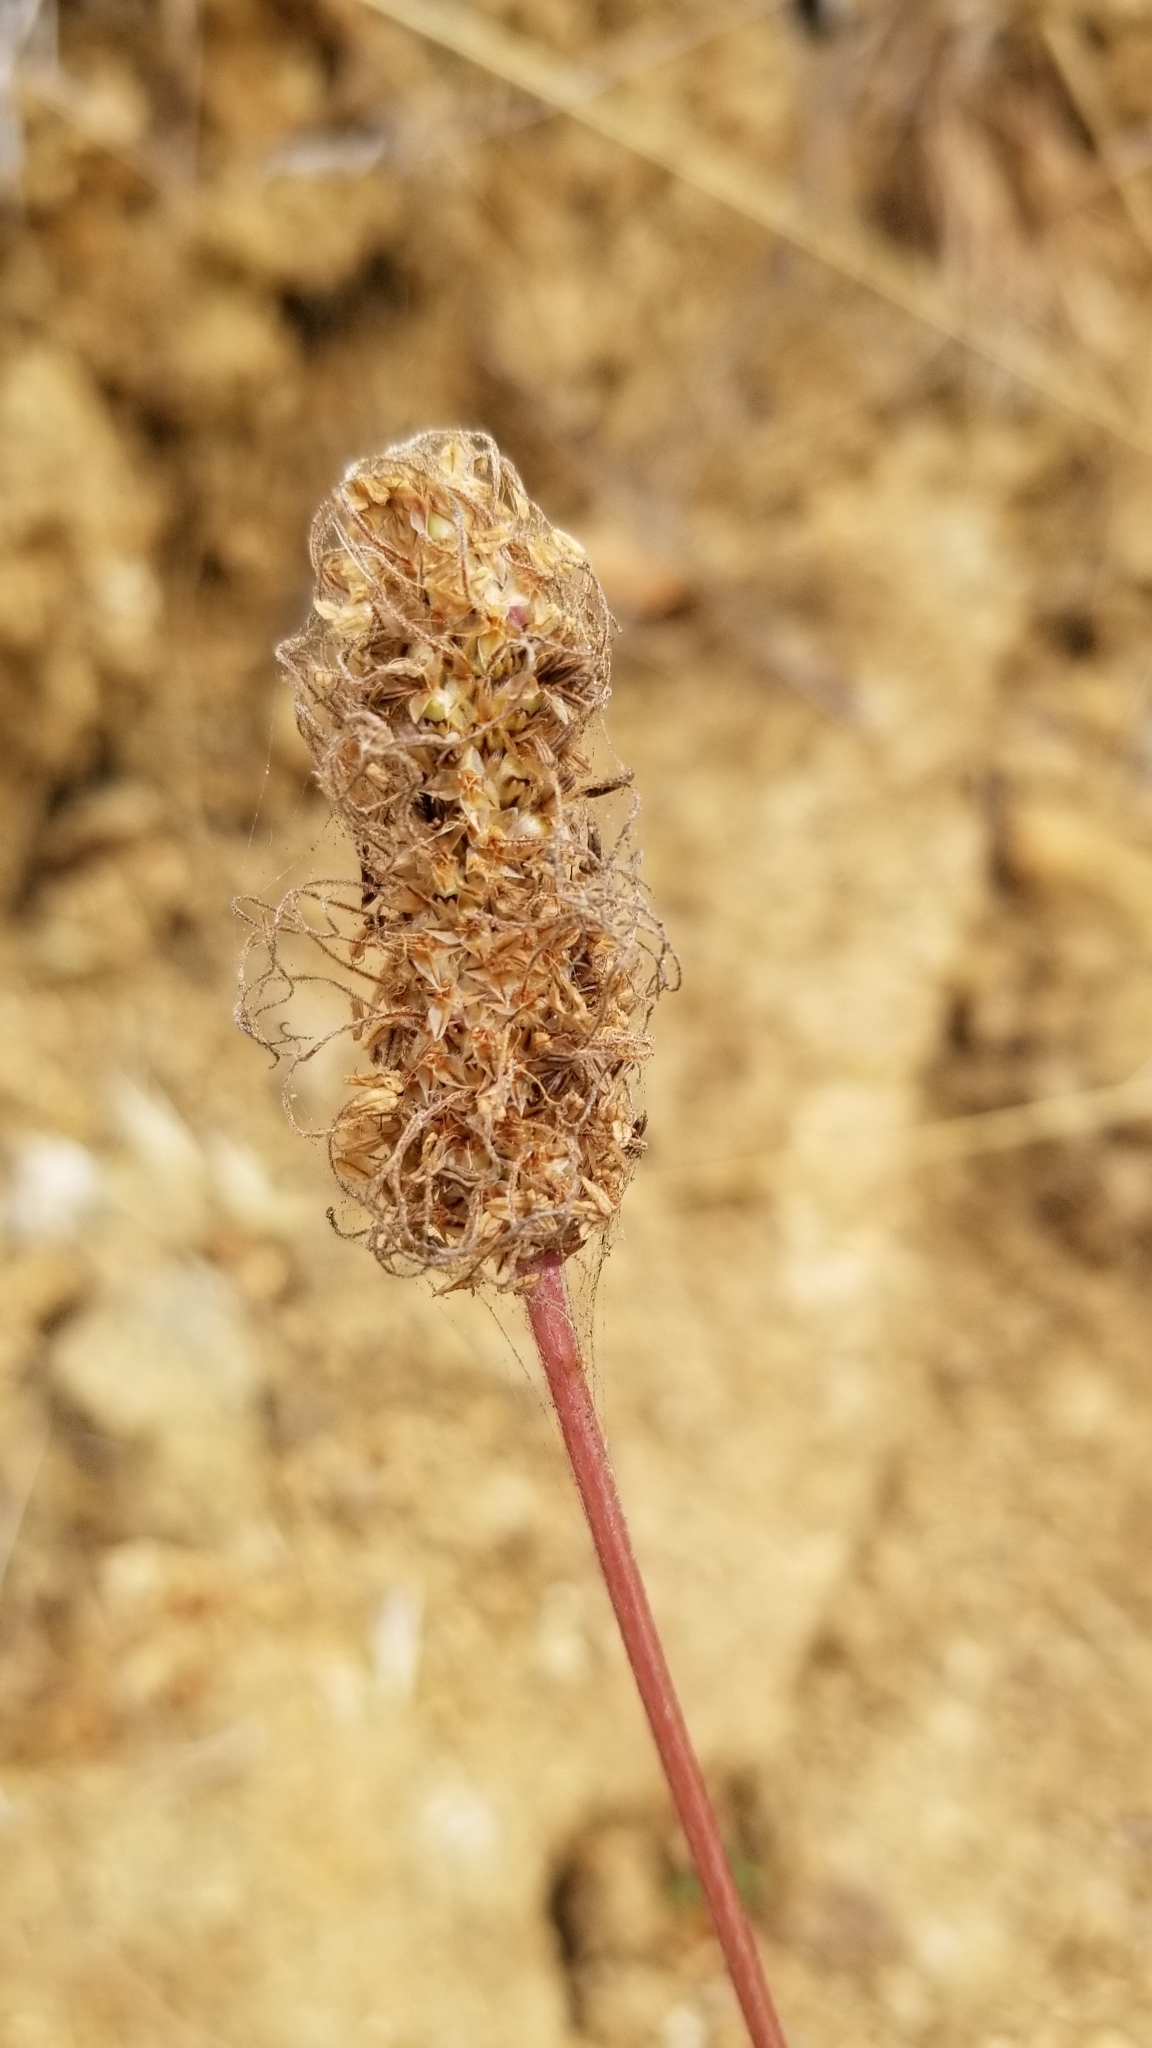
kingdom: Plantae
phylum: Tracheophyta
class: Magnoliopsida
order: Lamiales
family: Plantaginaceae
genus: Plantago
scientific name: Plantago lanceolata
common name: Ribwort plantain
